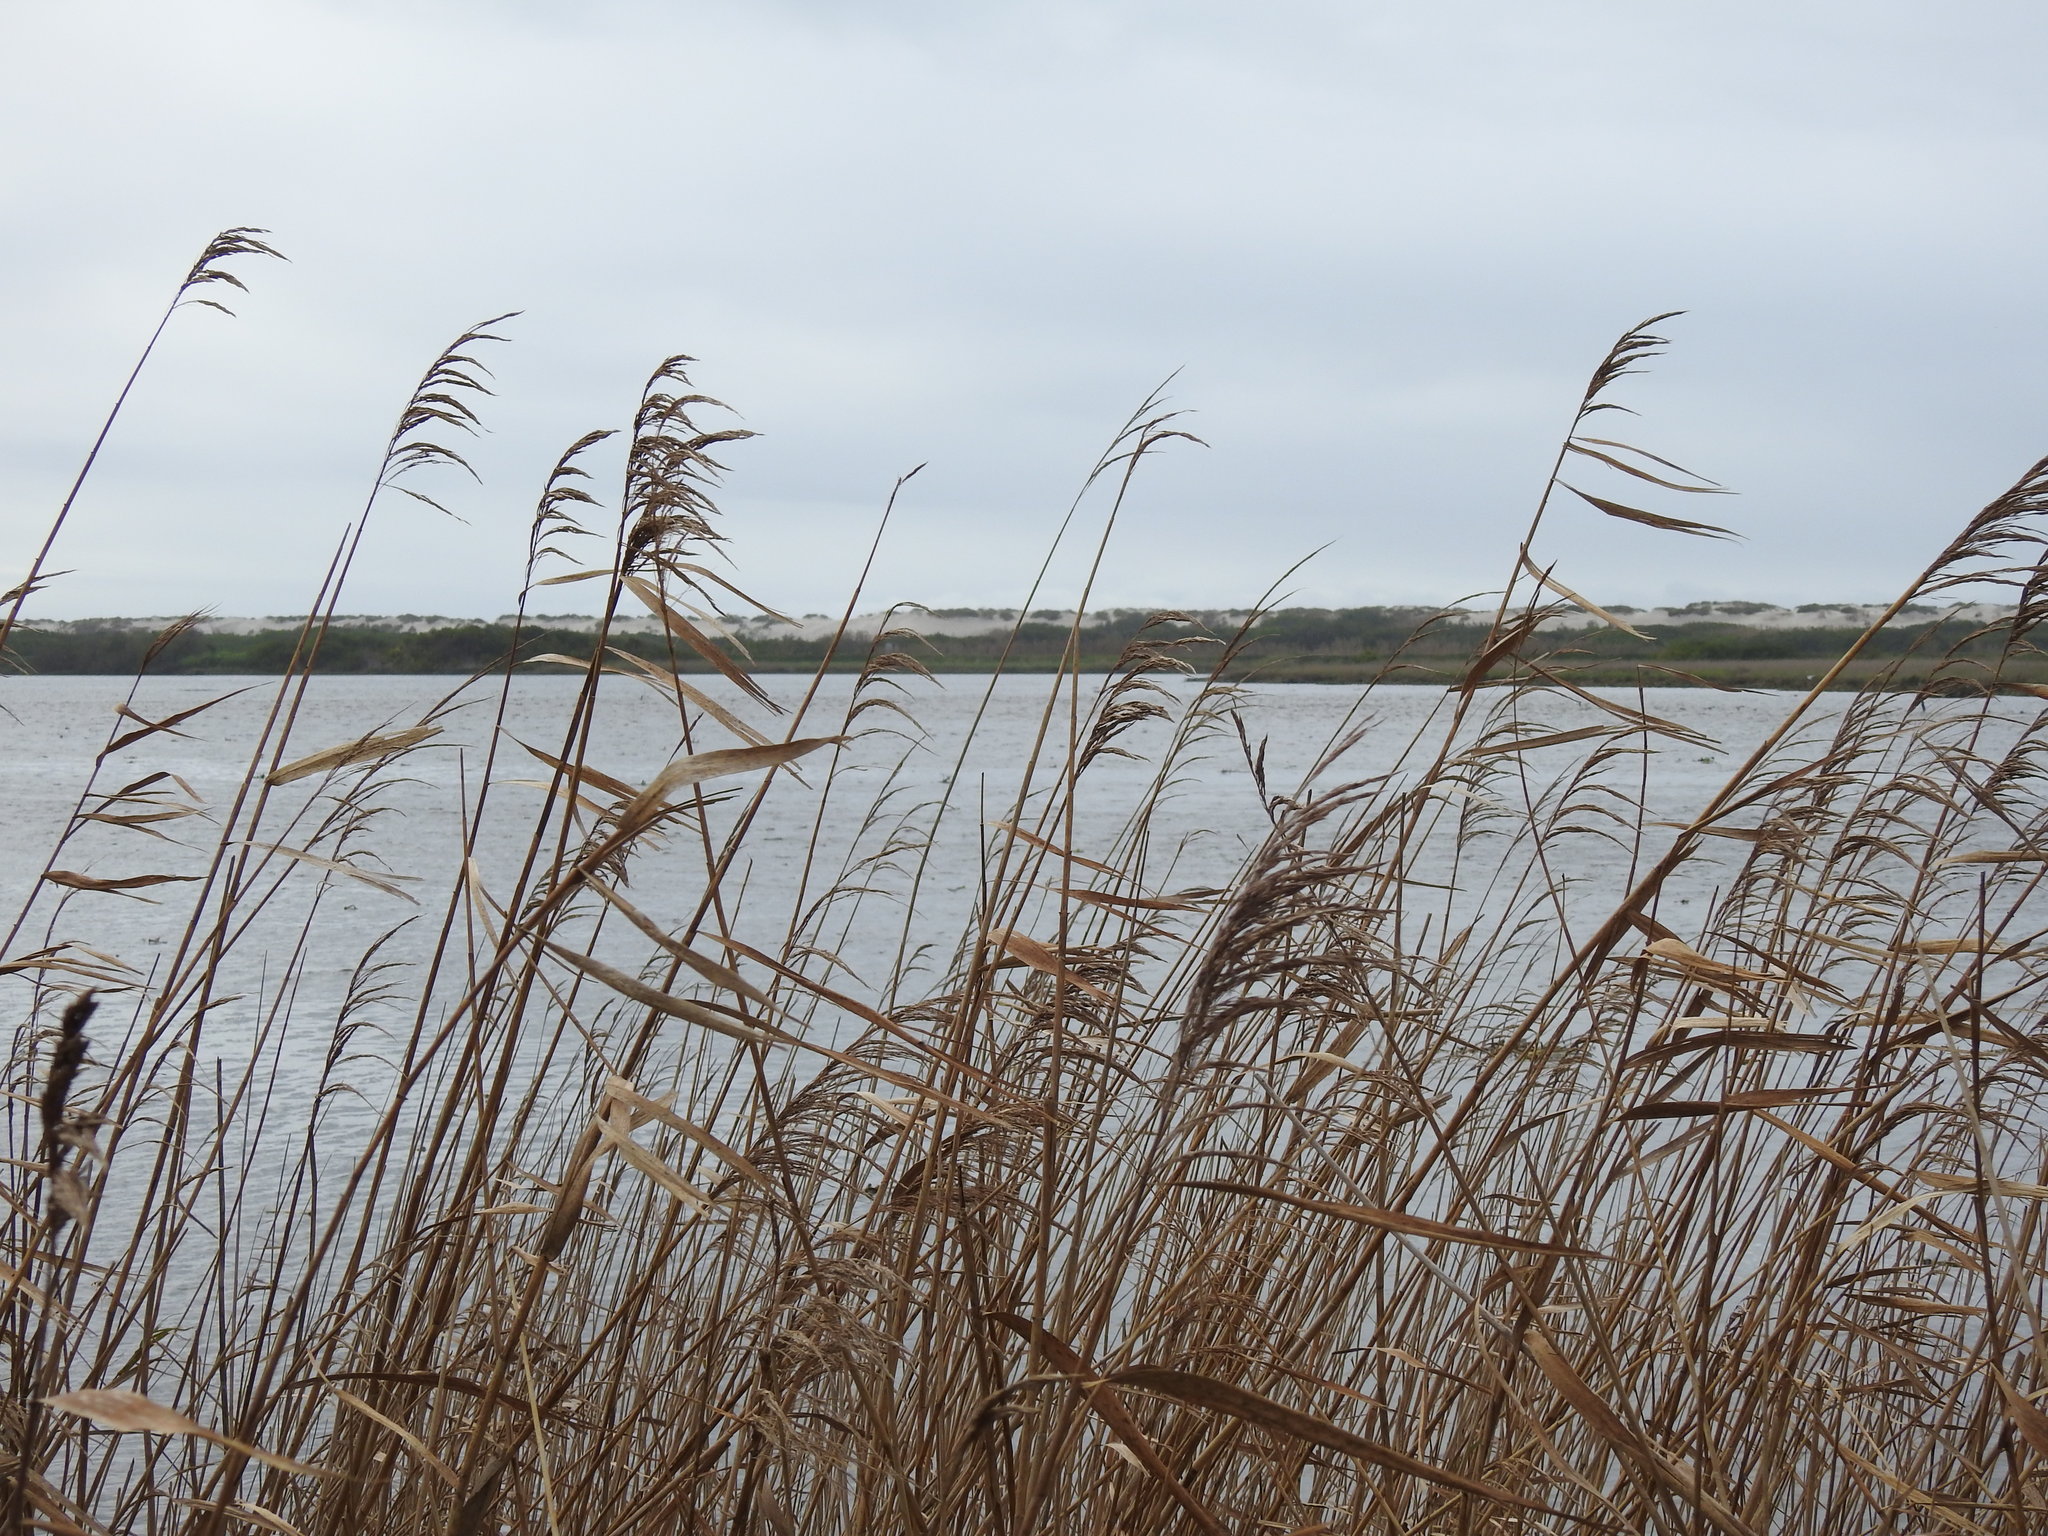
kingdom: Plantae
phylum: Tracheophyta
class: Liliopsida
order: Poales
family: Poaceae
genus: Phragmites
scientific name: Phragmites australis
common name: Common reed
